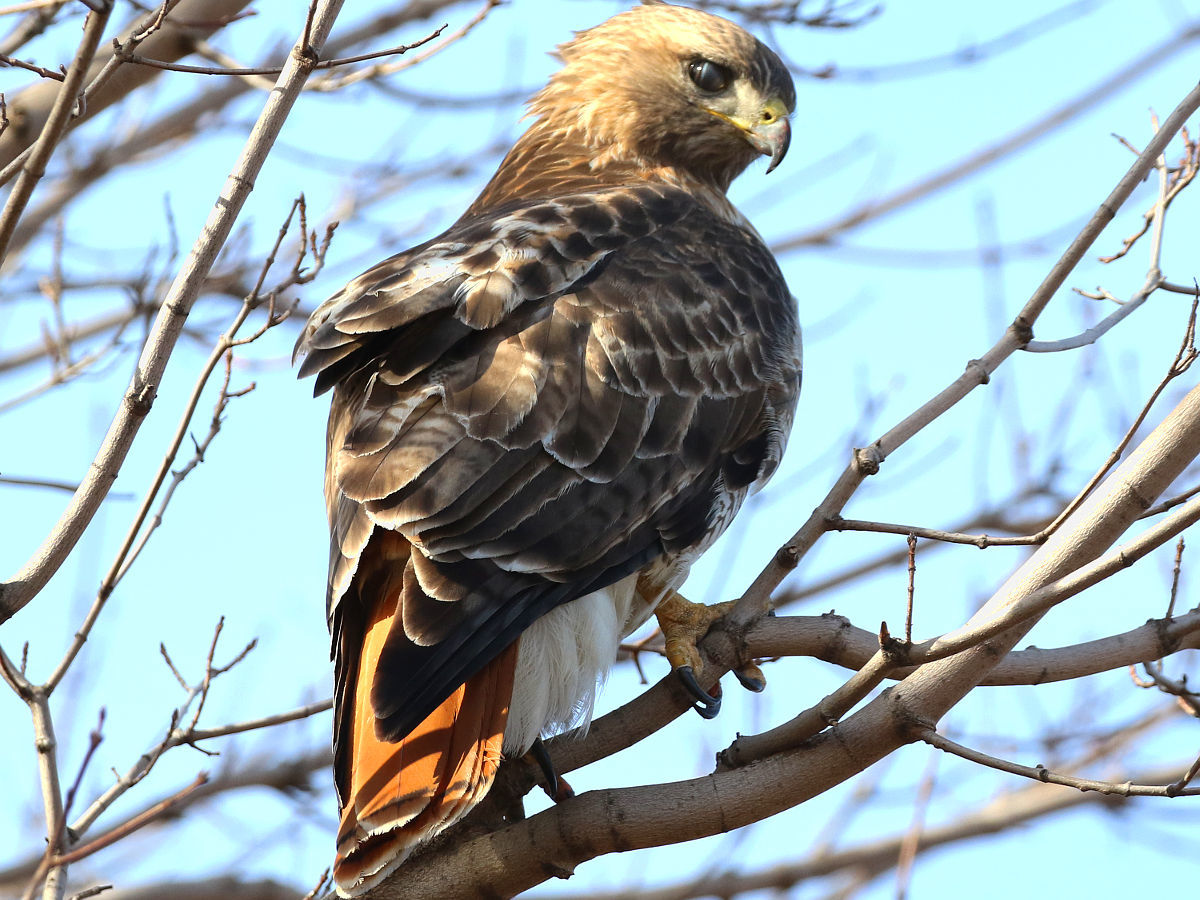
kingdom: Animalia
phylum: Chordata
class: Aves
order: Accipitriformes
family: Accipitridae
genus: Buteo
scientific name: Buteo jamaicensis
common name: Red-tailed hawk
